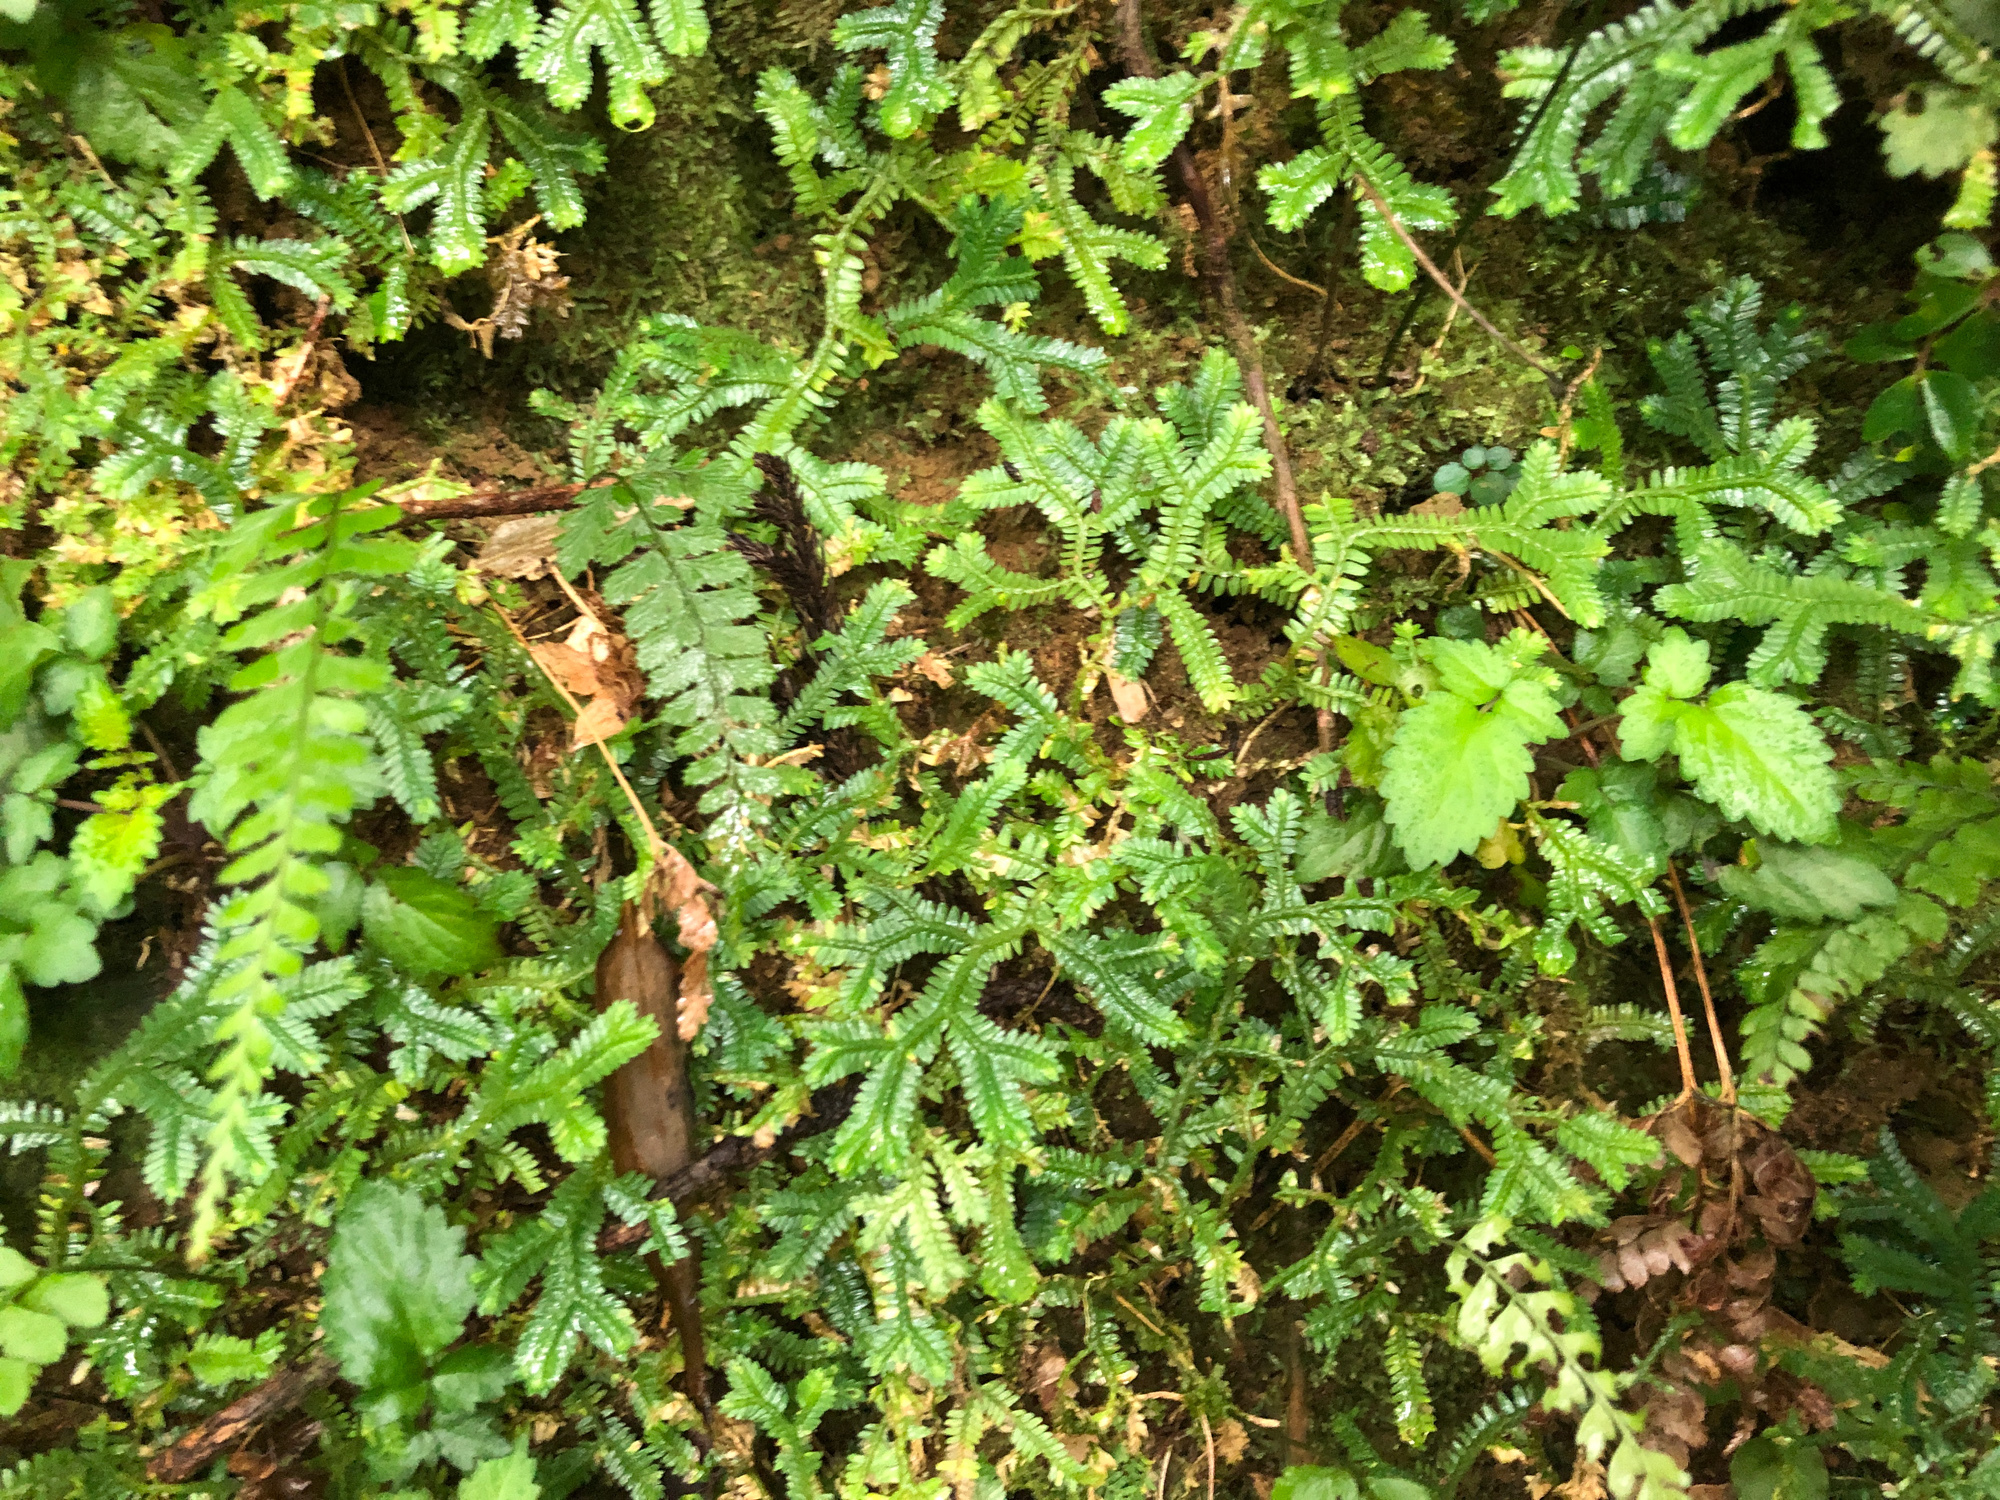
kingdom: Plantae
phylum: Tracheophyta
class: Lycopodiopsida
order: Selaginellales
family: Selaginellaceae
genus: Selaginella
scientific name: Selaginella doederleinii
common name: Greater selaginella
